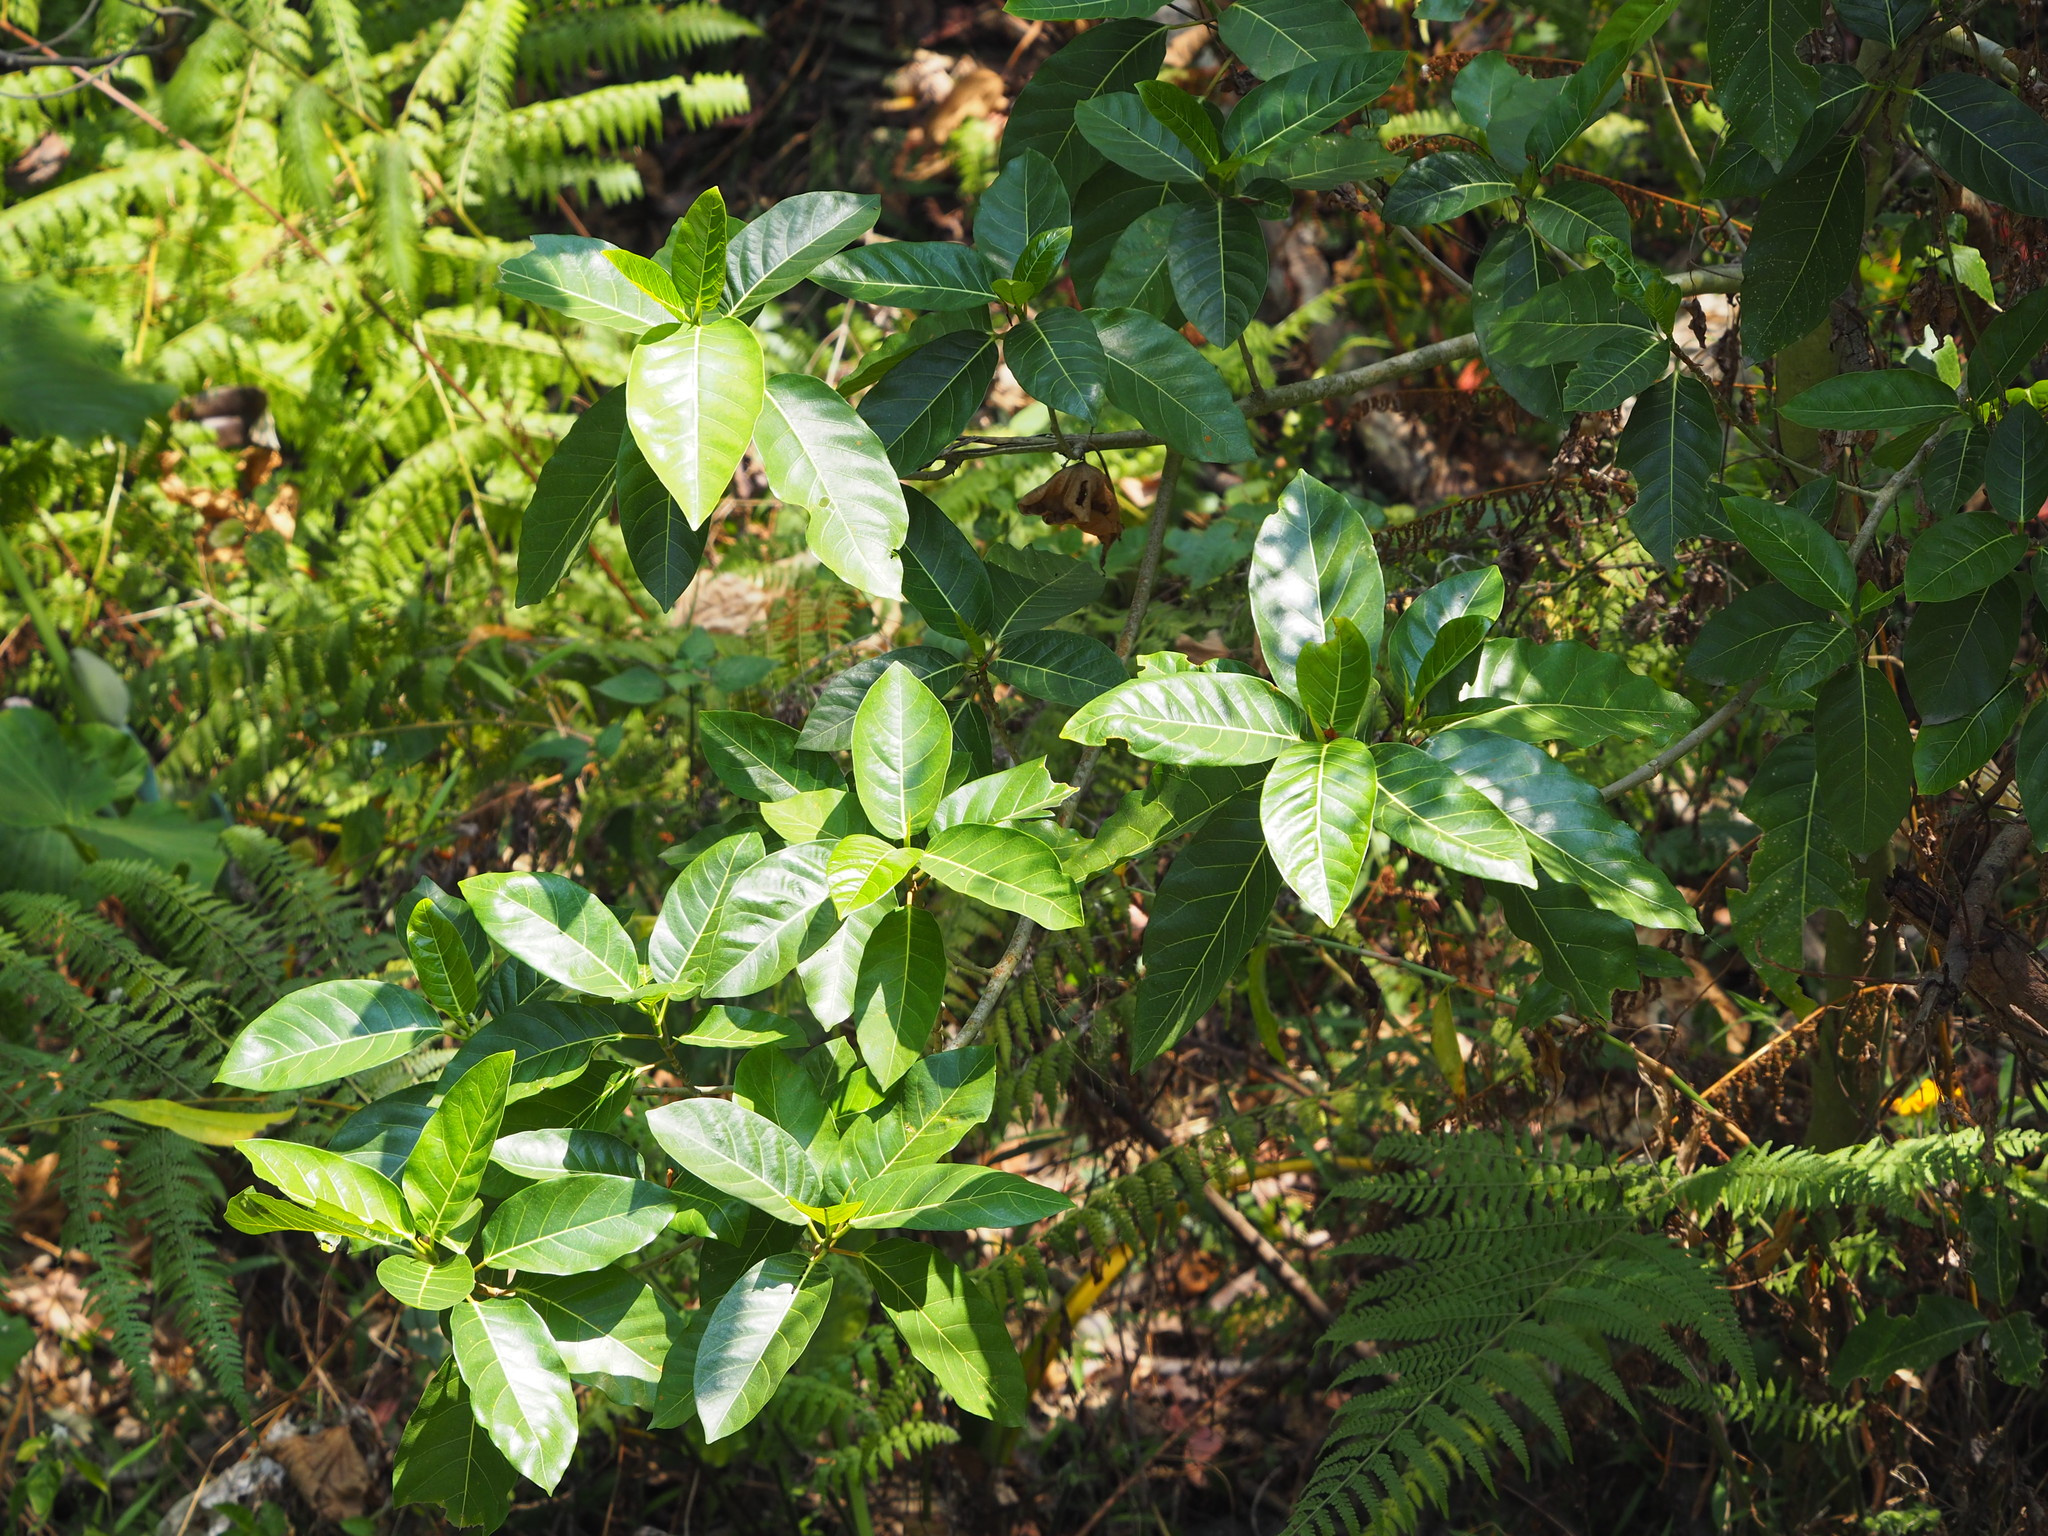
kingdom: Plantae
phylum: Tracheophyta
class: Magnoliopsida
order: Rosales
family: Moraceae
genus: Ficus
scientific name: Ficus septica
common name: Septic fig
